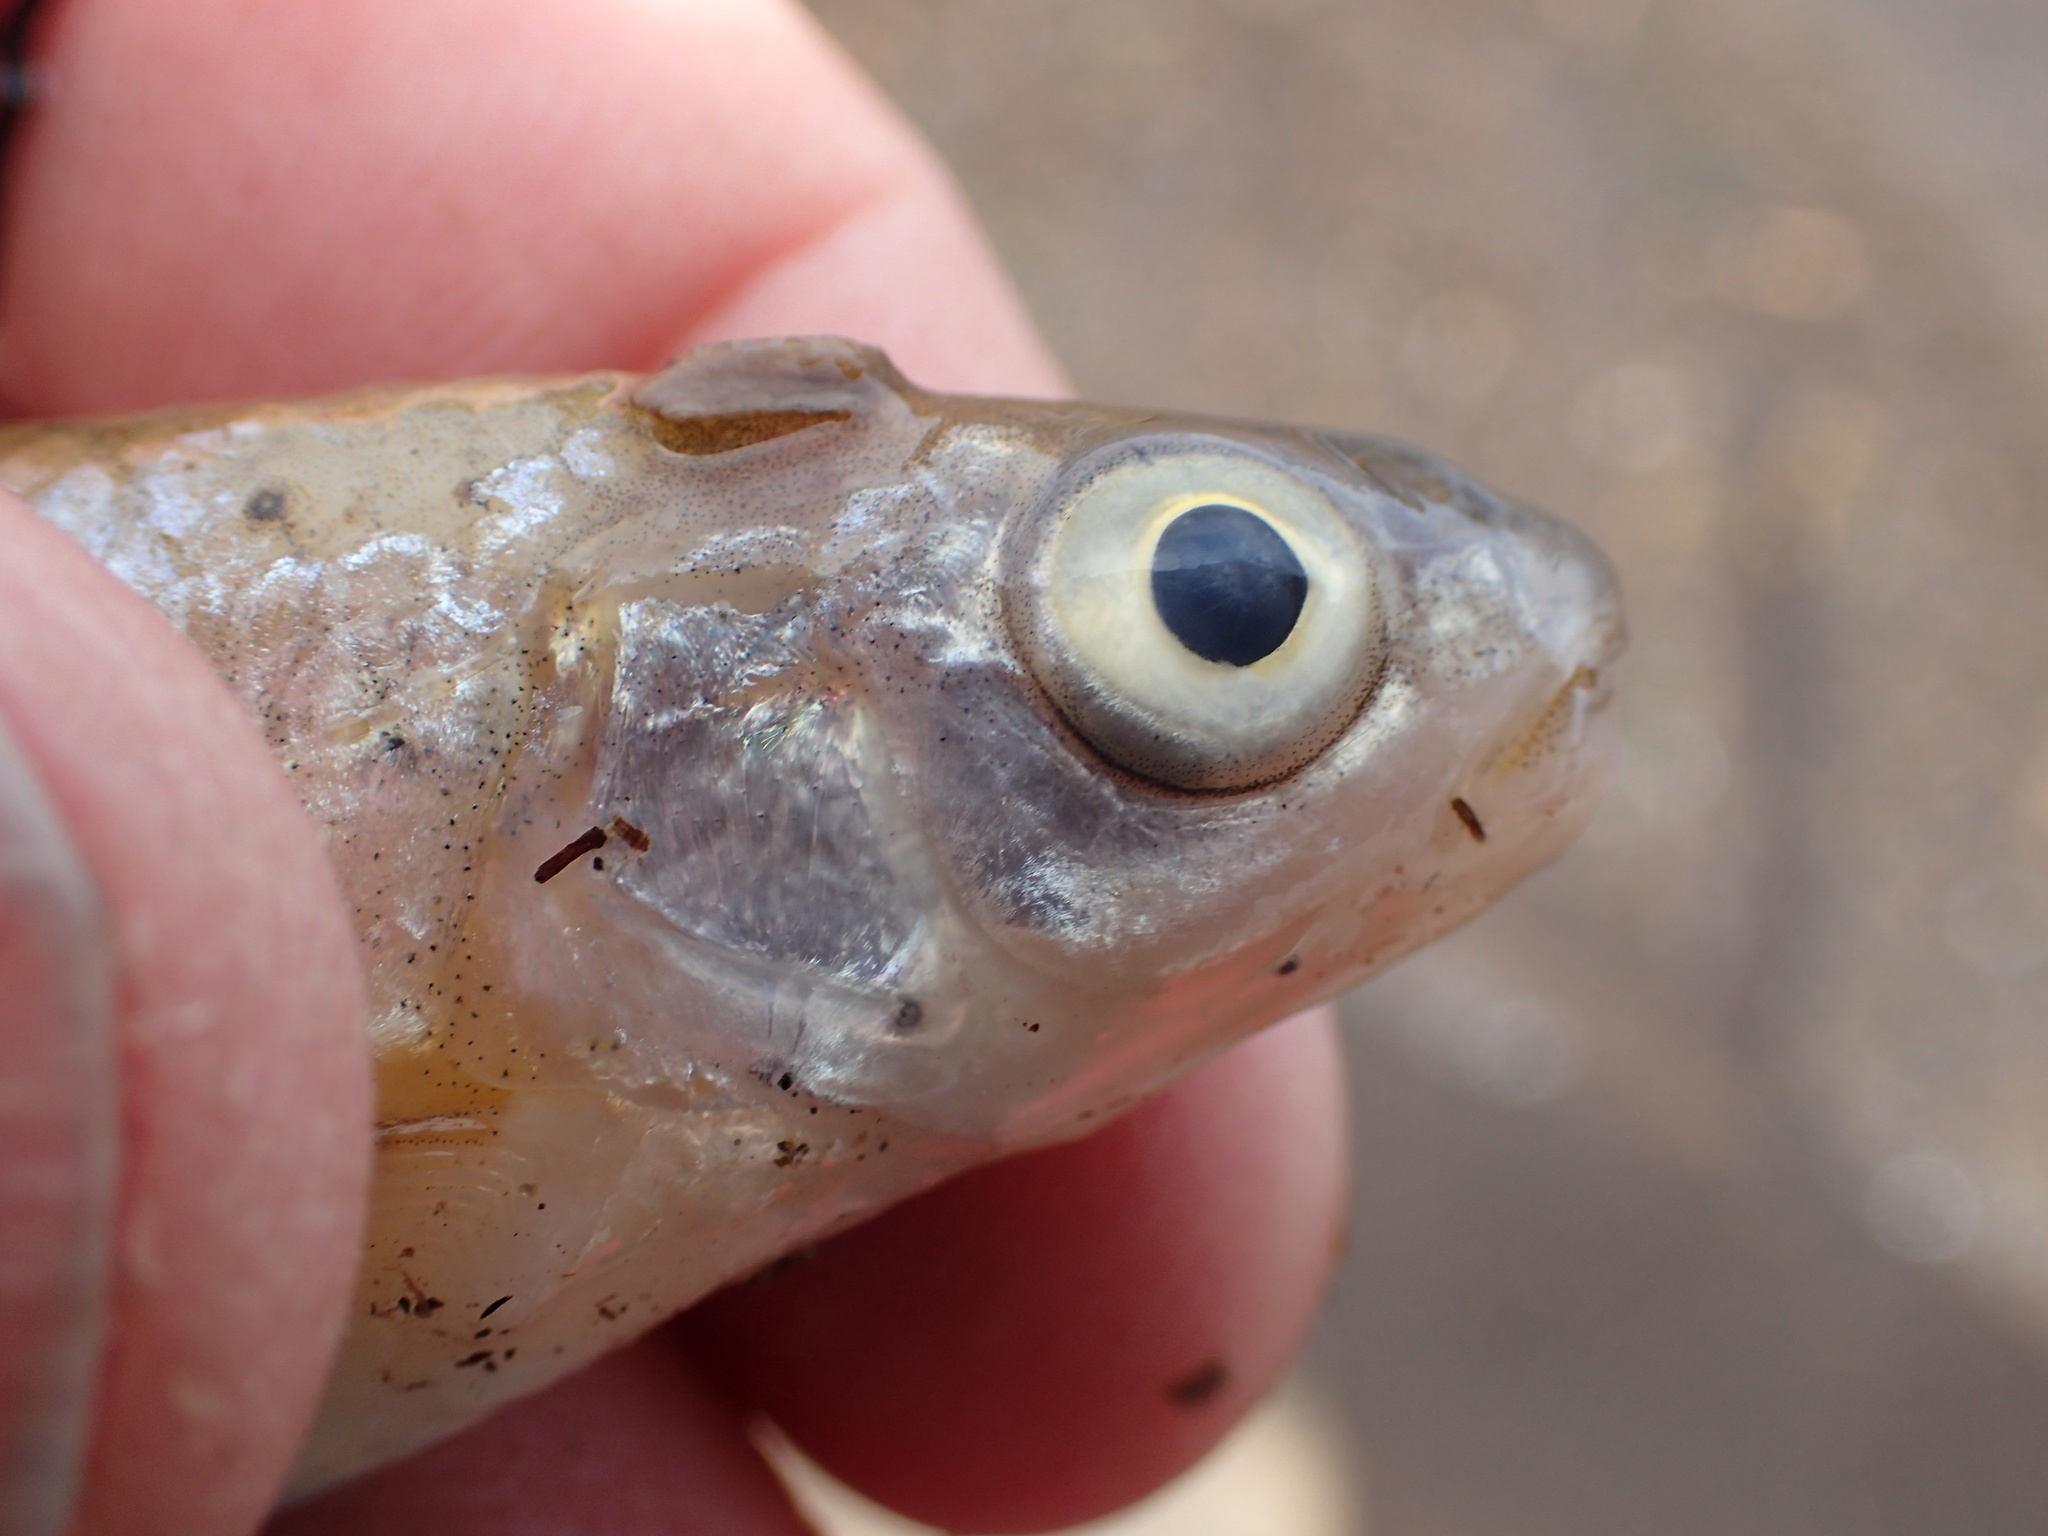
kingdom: Animalia
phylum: Chordata
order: Cypriniformes
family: Cyprinidae
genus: Notropis
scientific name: Notropis
